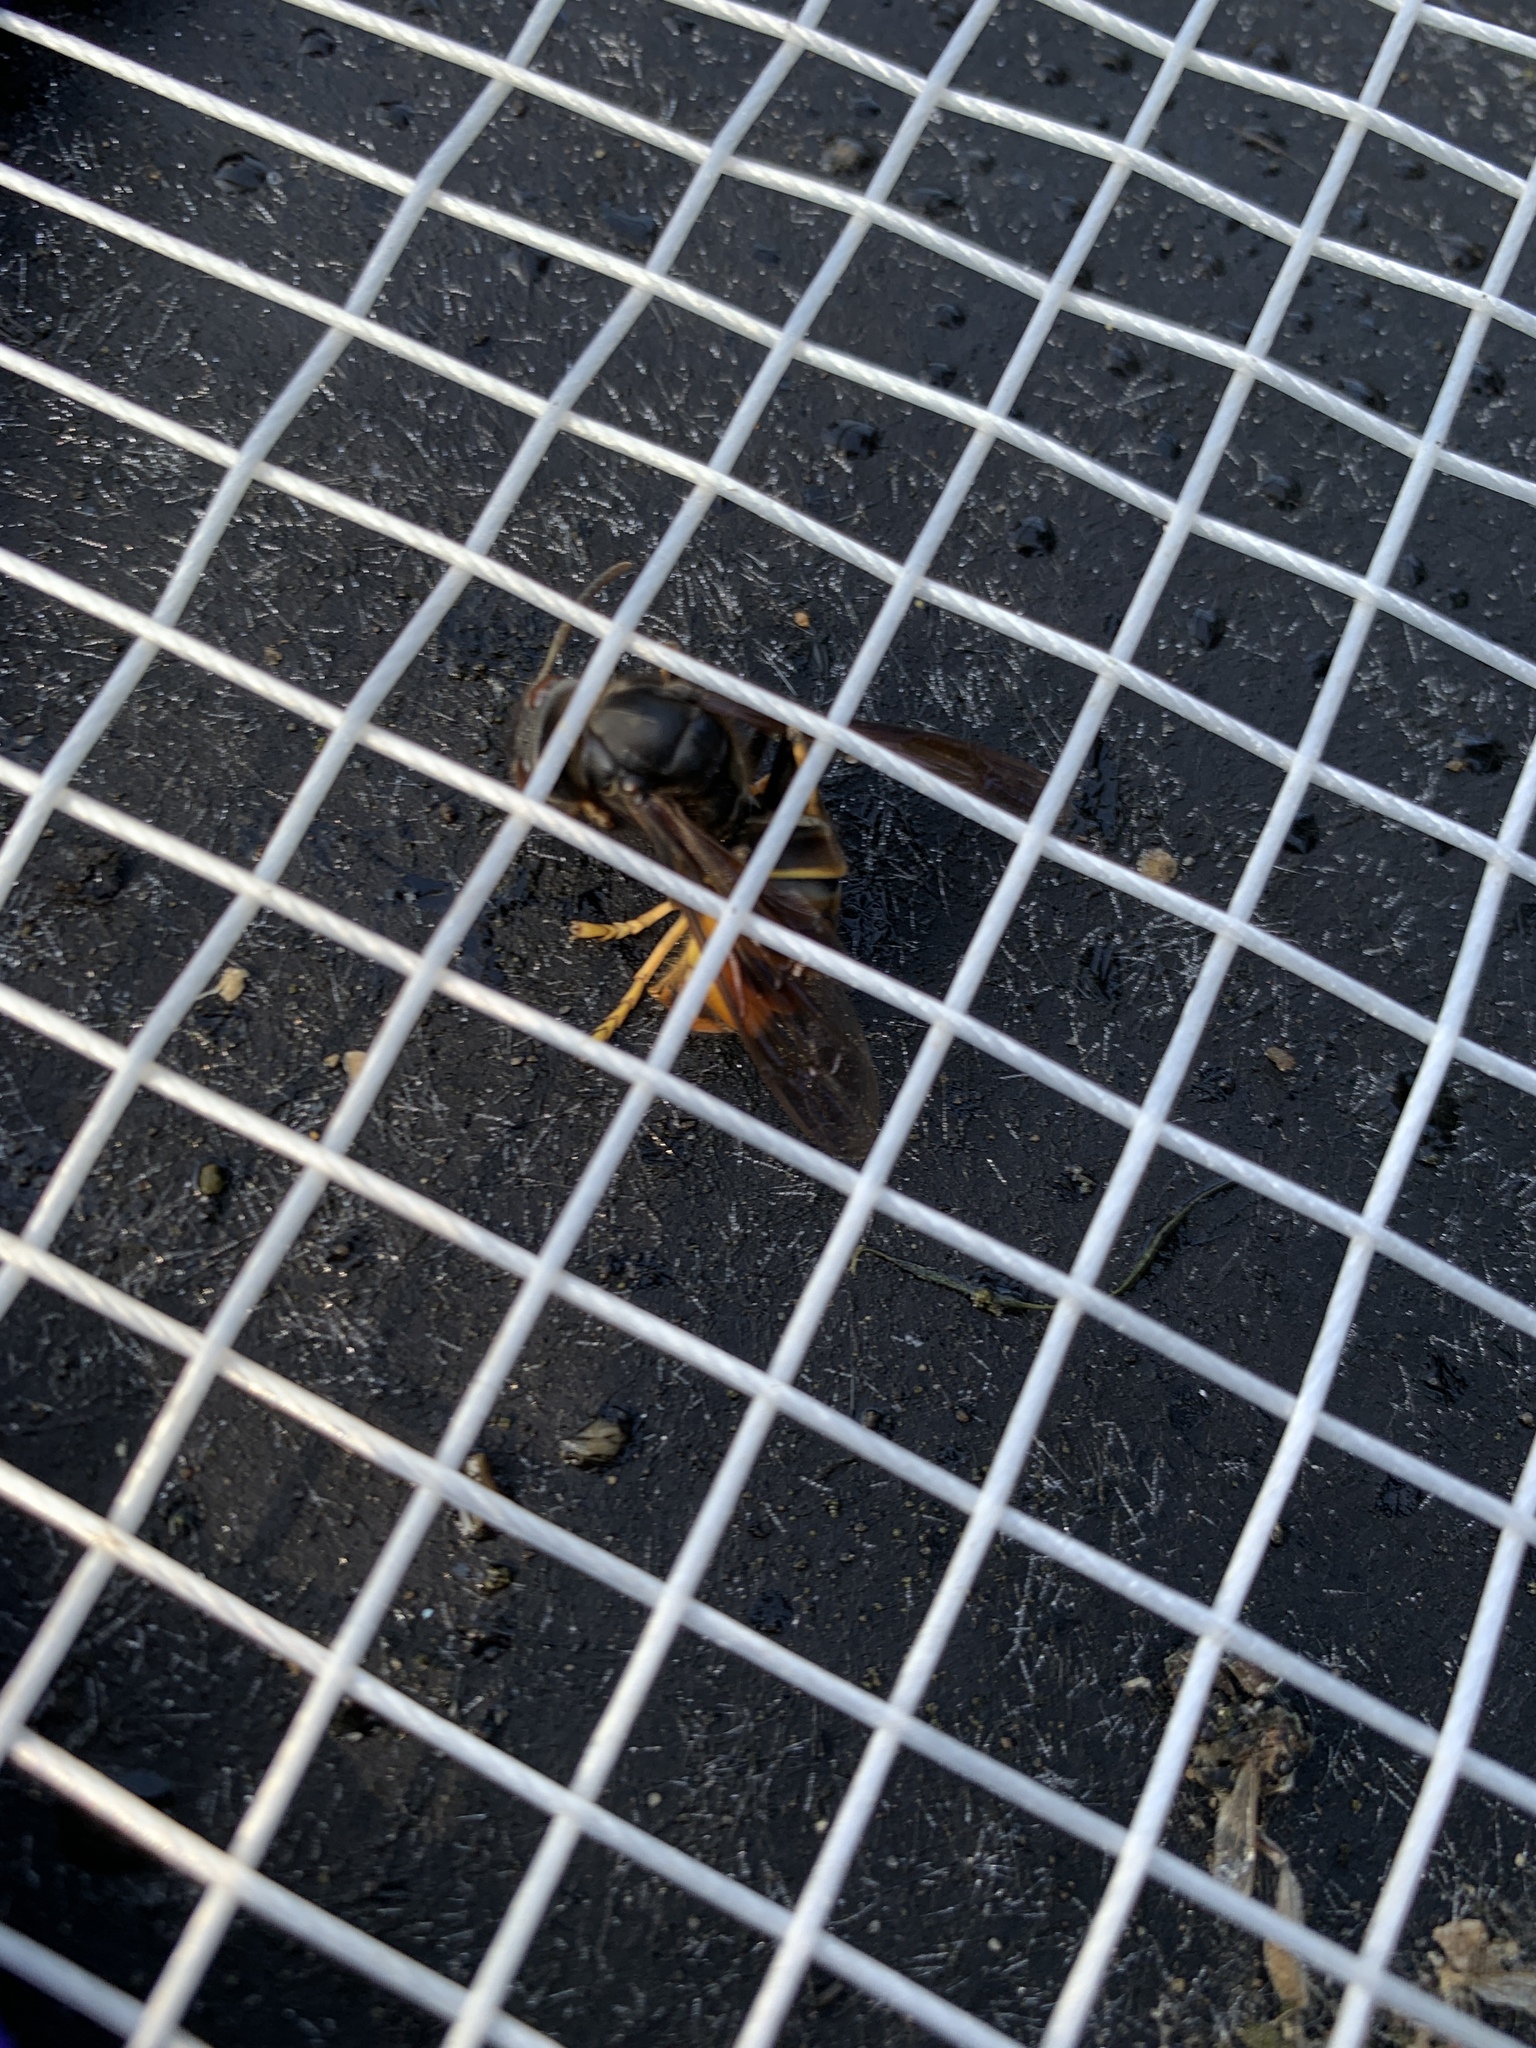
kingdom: Animalia
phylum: Arthropoda
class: Insecta
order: Hymenoptera
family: Vespidae
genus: Vespa
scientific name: Vespa velutina
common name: Asian hornet
